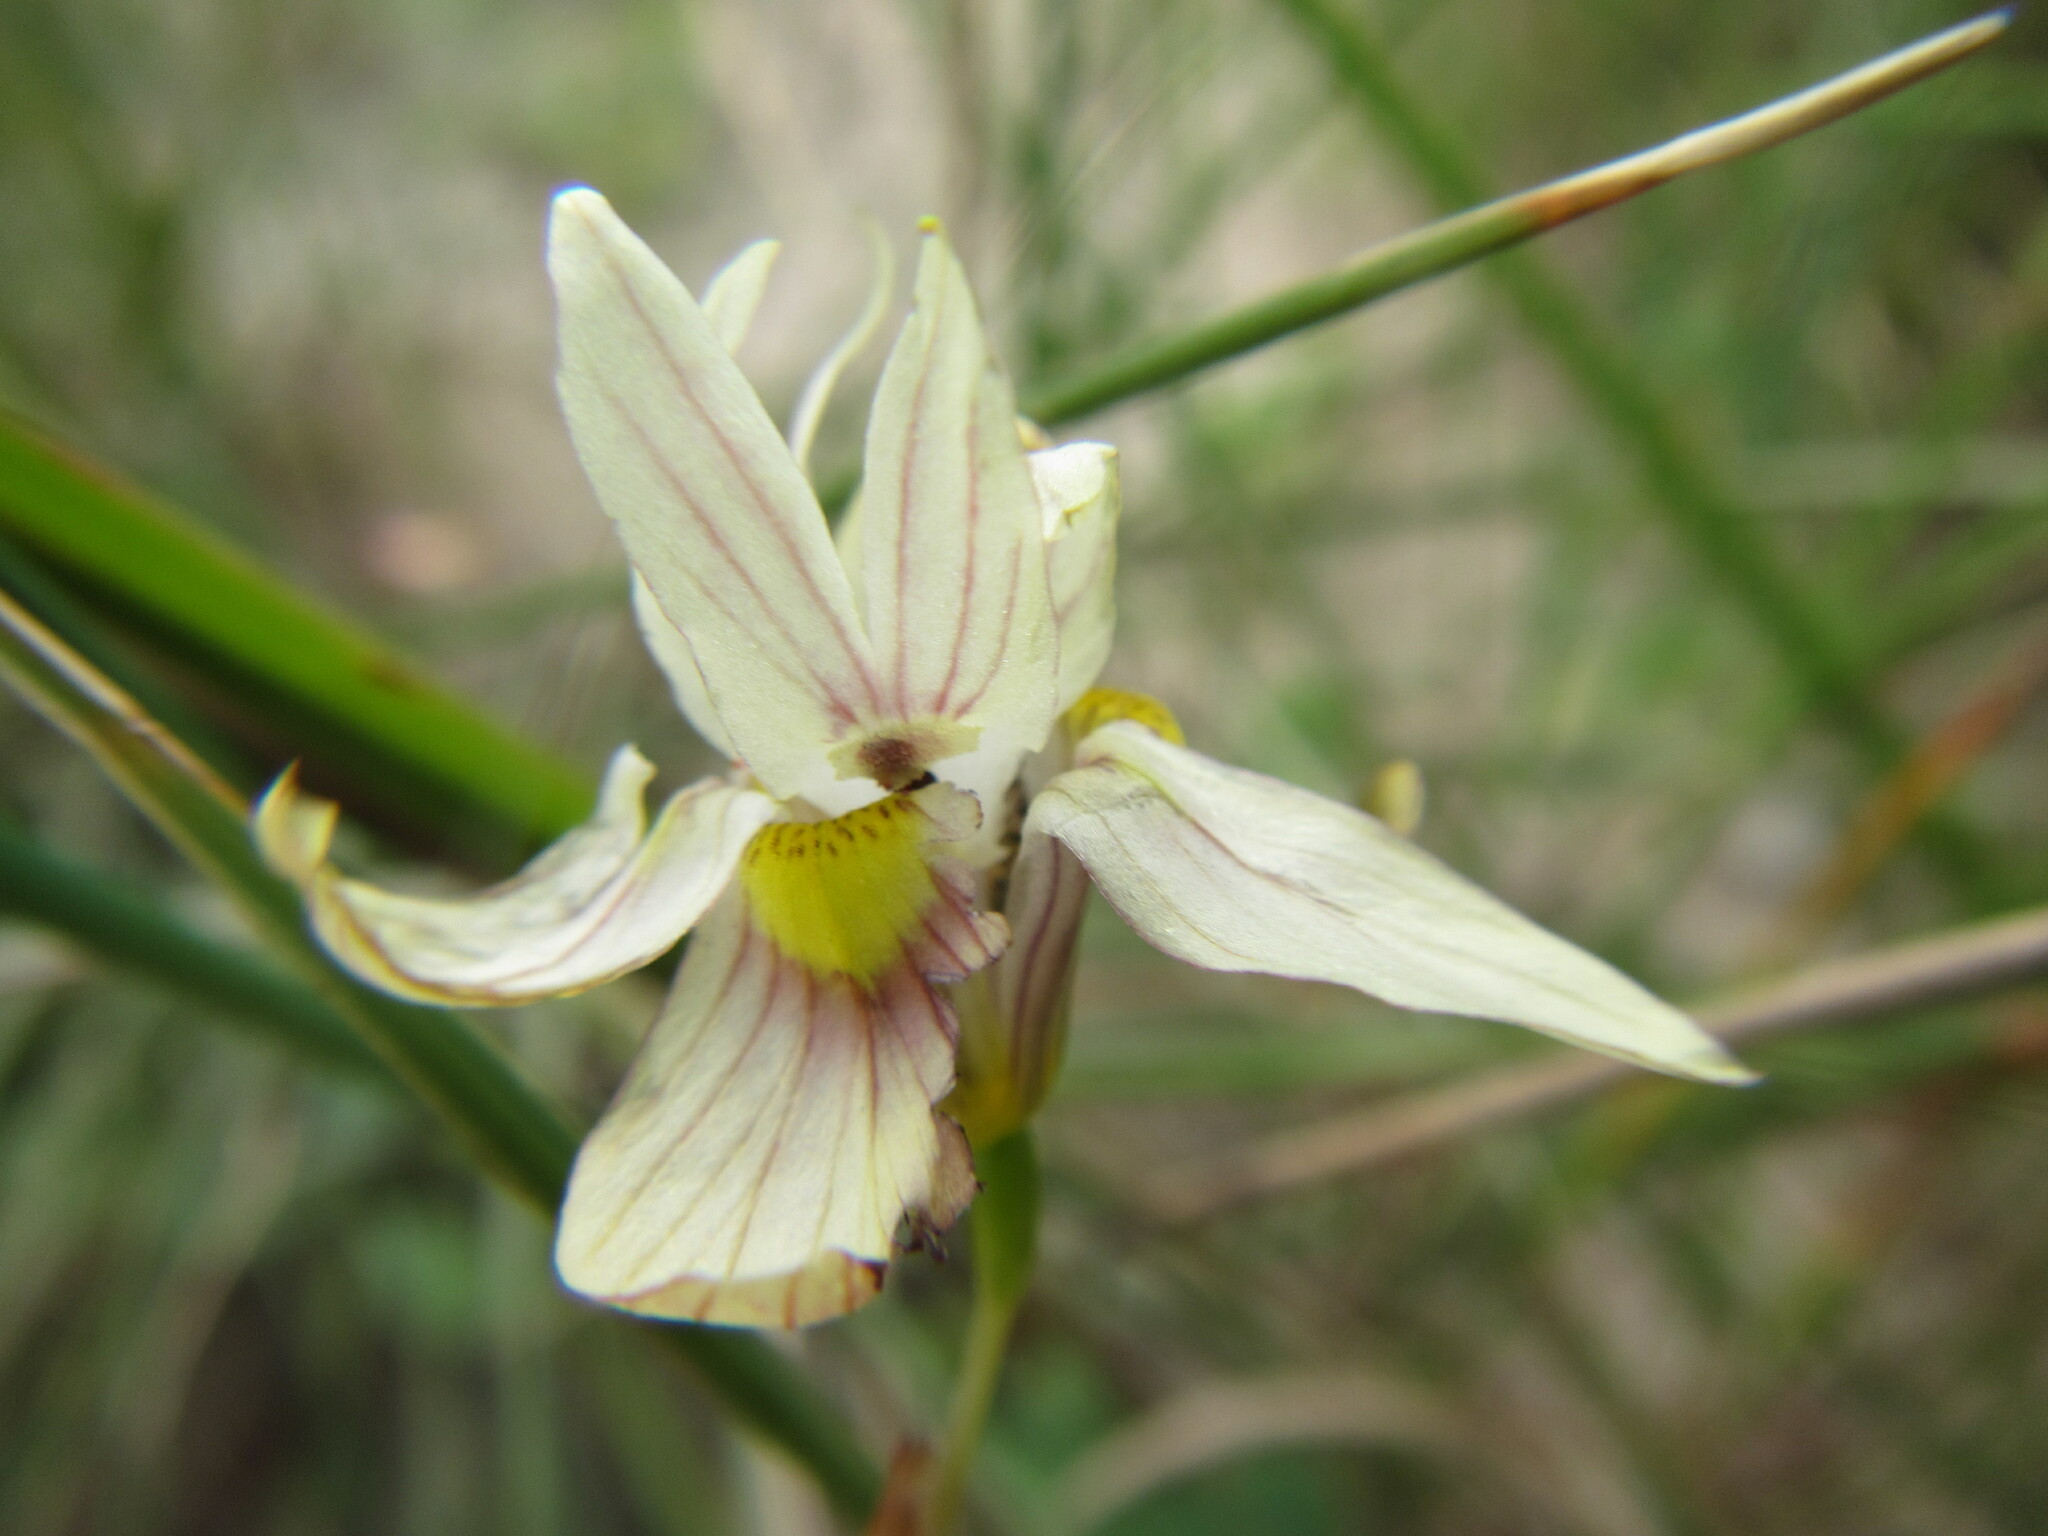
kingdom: Plantae
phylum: Tracheophyta
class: Liliopsida
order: Asparagales
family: Iridaceae
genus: Moraea
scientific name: Moraea gawleri
